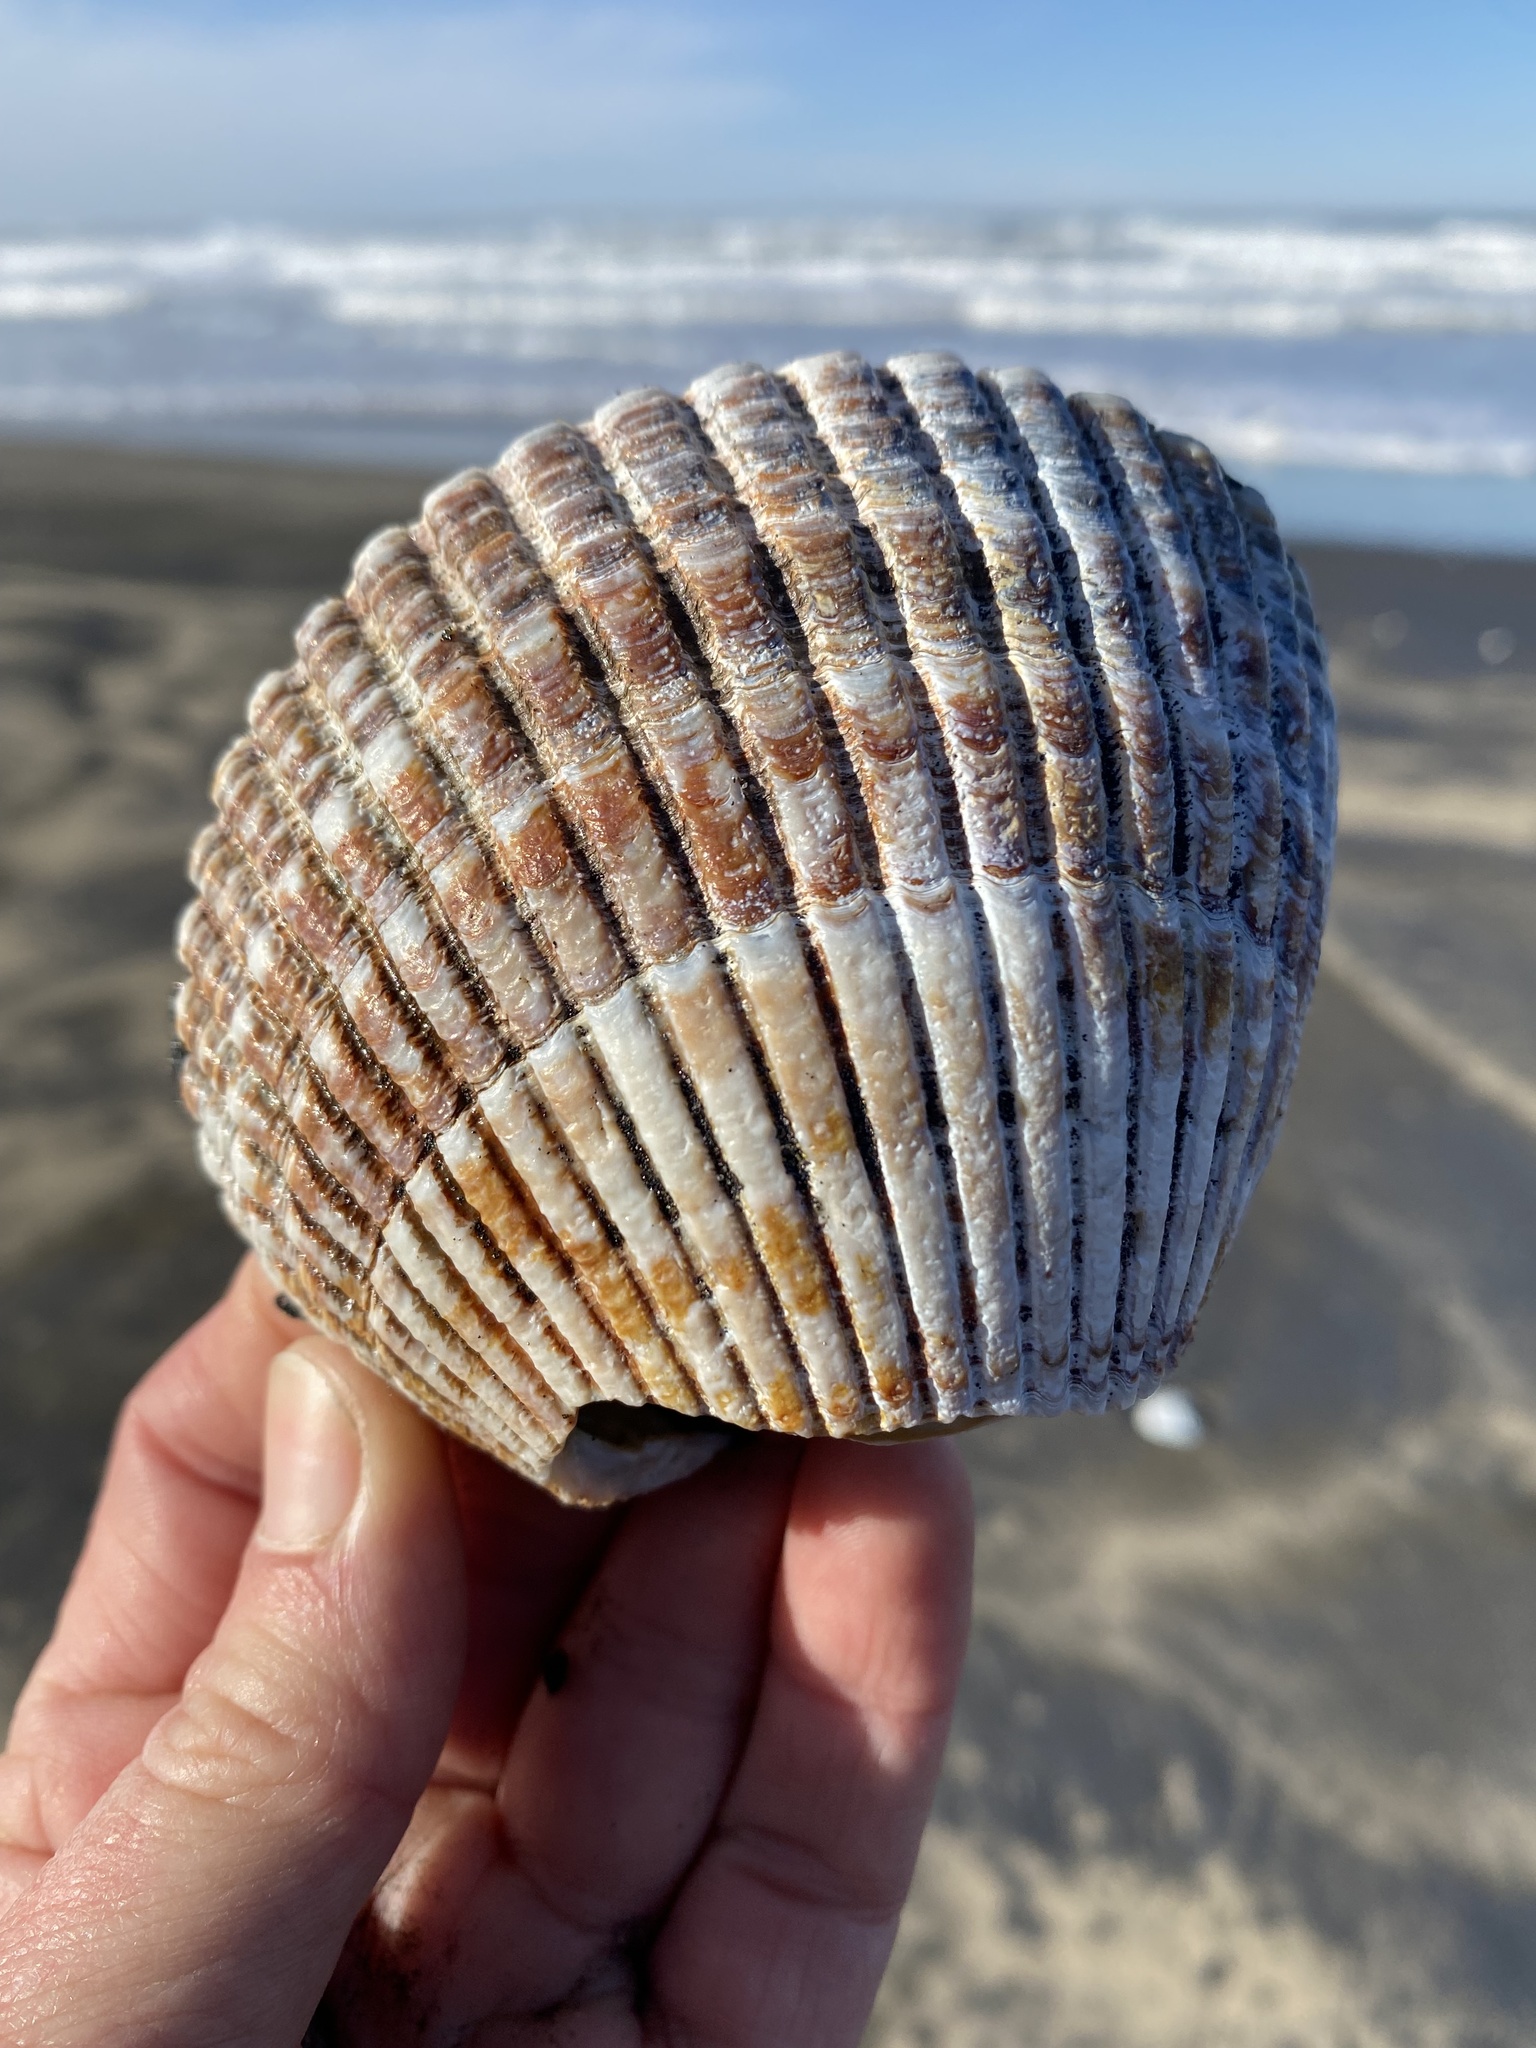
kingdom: Animalia
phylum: Mollusca
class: Bivalvia
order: Cardiida
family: Cardiidae
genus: Clinocardium
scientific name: Clinocardium nuttallii
